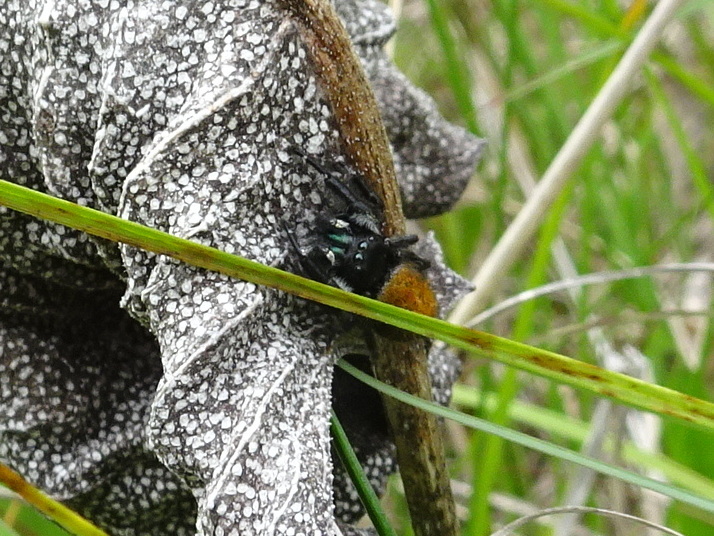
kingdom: Animalia
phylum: Arthropoda
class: Arachnida
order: Araneae
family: Salticidae
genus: Phidippus
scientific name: Phidippus princeps
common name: Grayish jumping spider
